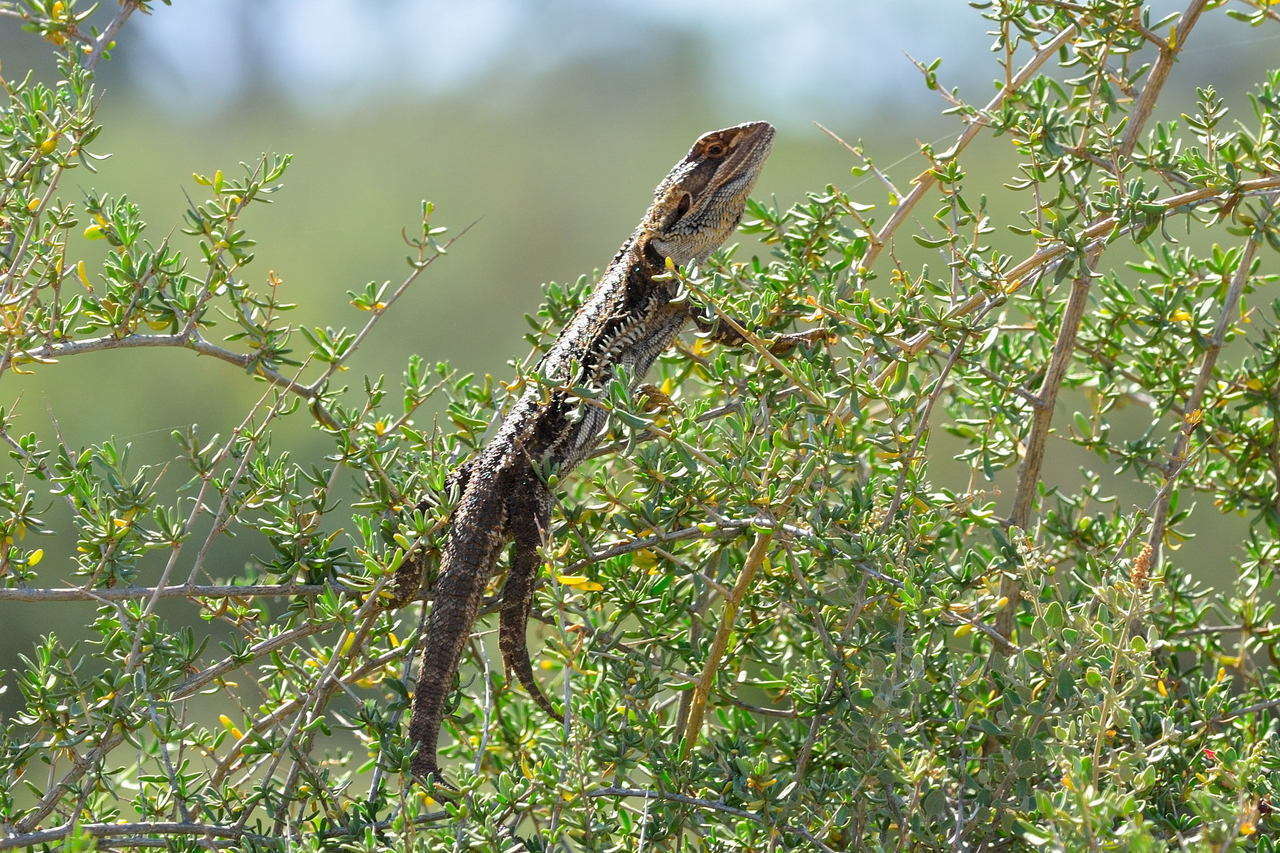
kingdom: Animalia
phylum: Chordata
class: Squamata
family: Agamidae
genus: Pogona
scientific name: Pogona vitticeps
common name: Central bearded dragon
